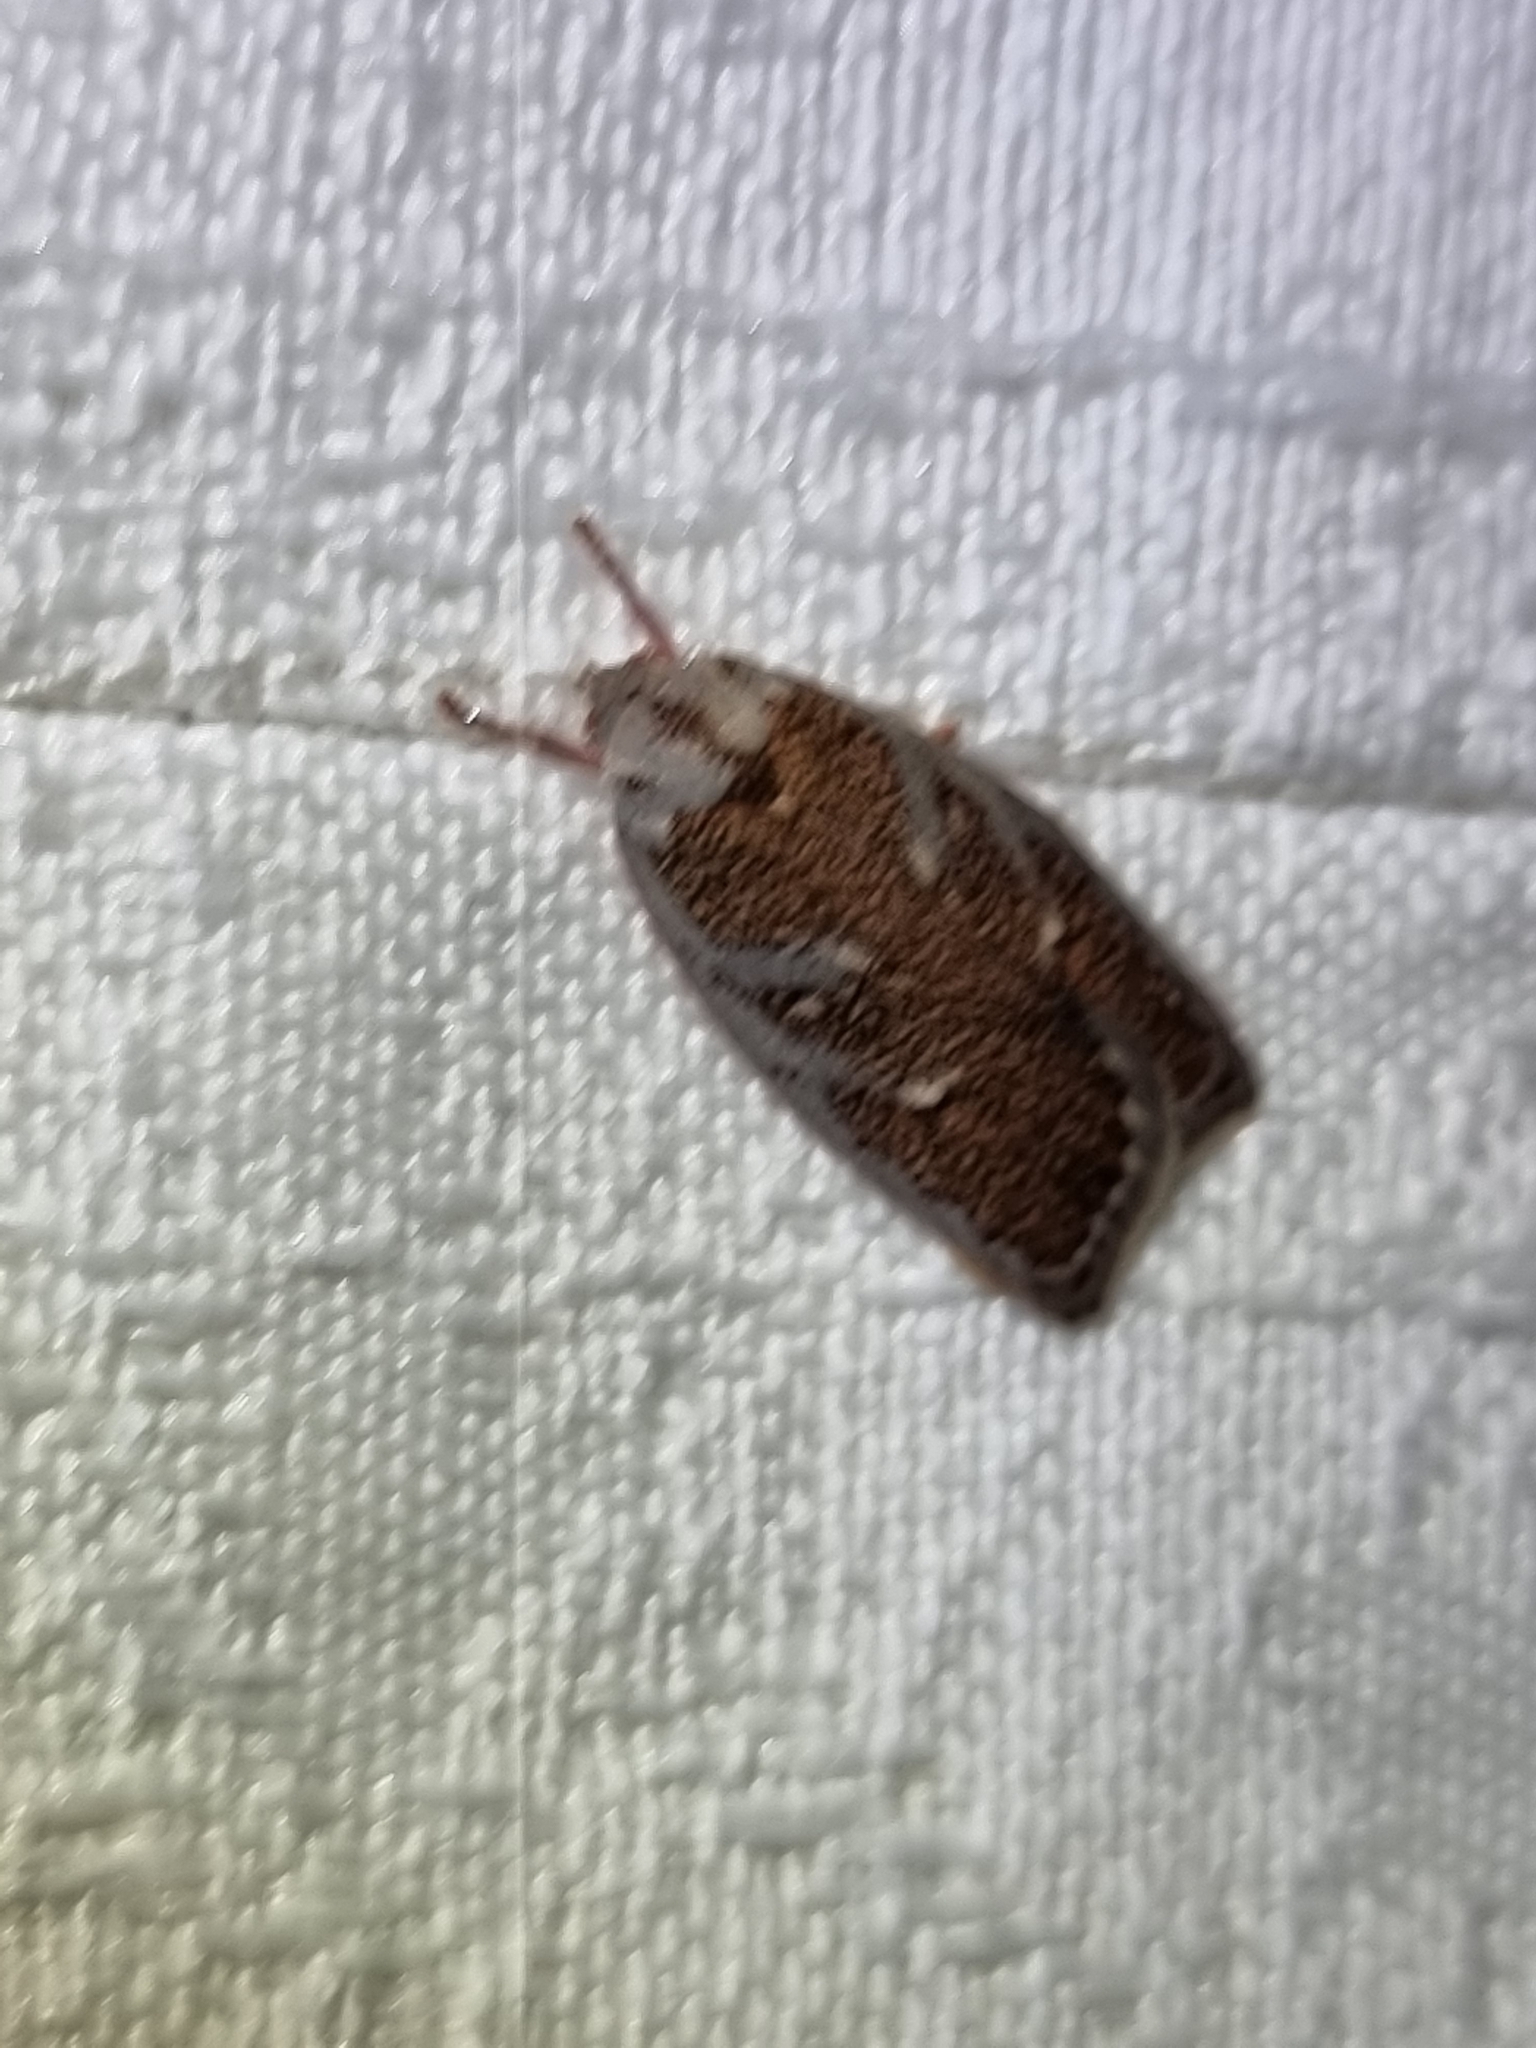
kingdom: Animalia
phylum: Arthropoda
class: Insecta
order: Lepidoptera
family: Oecophoridae
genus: Euchaetis
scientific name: Euchaetis rhizobola
